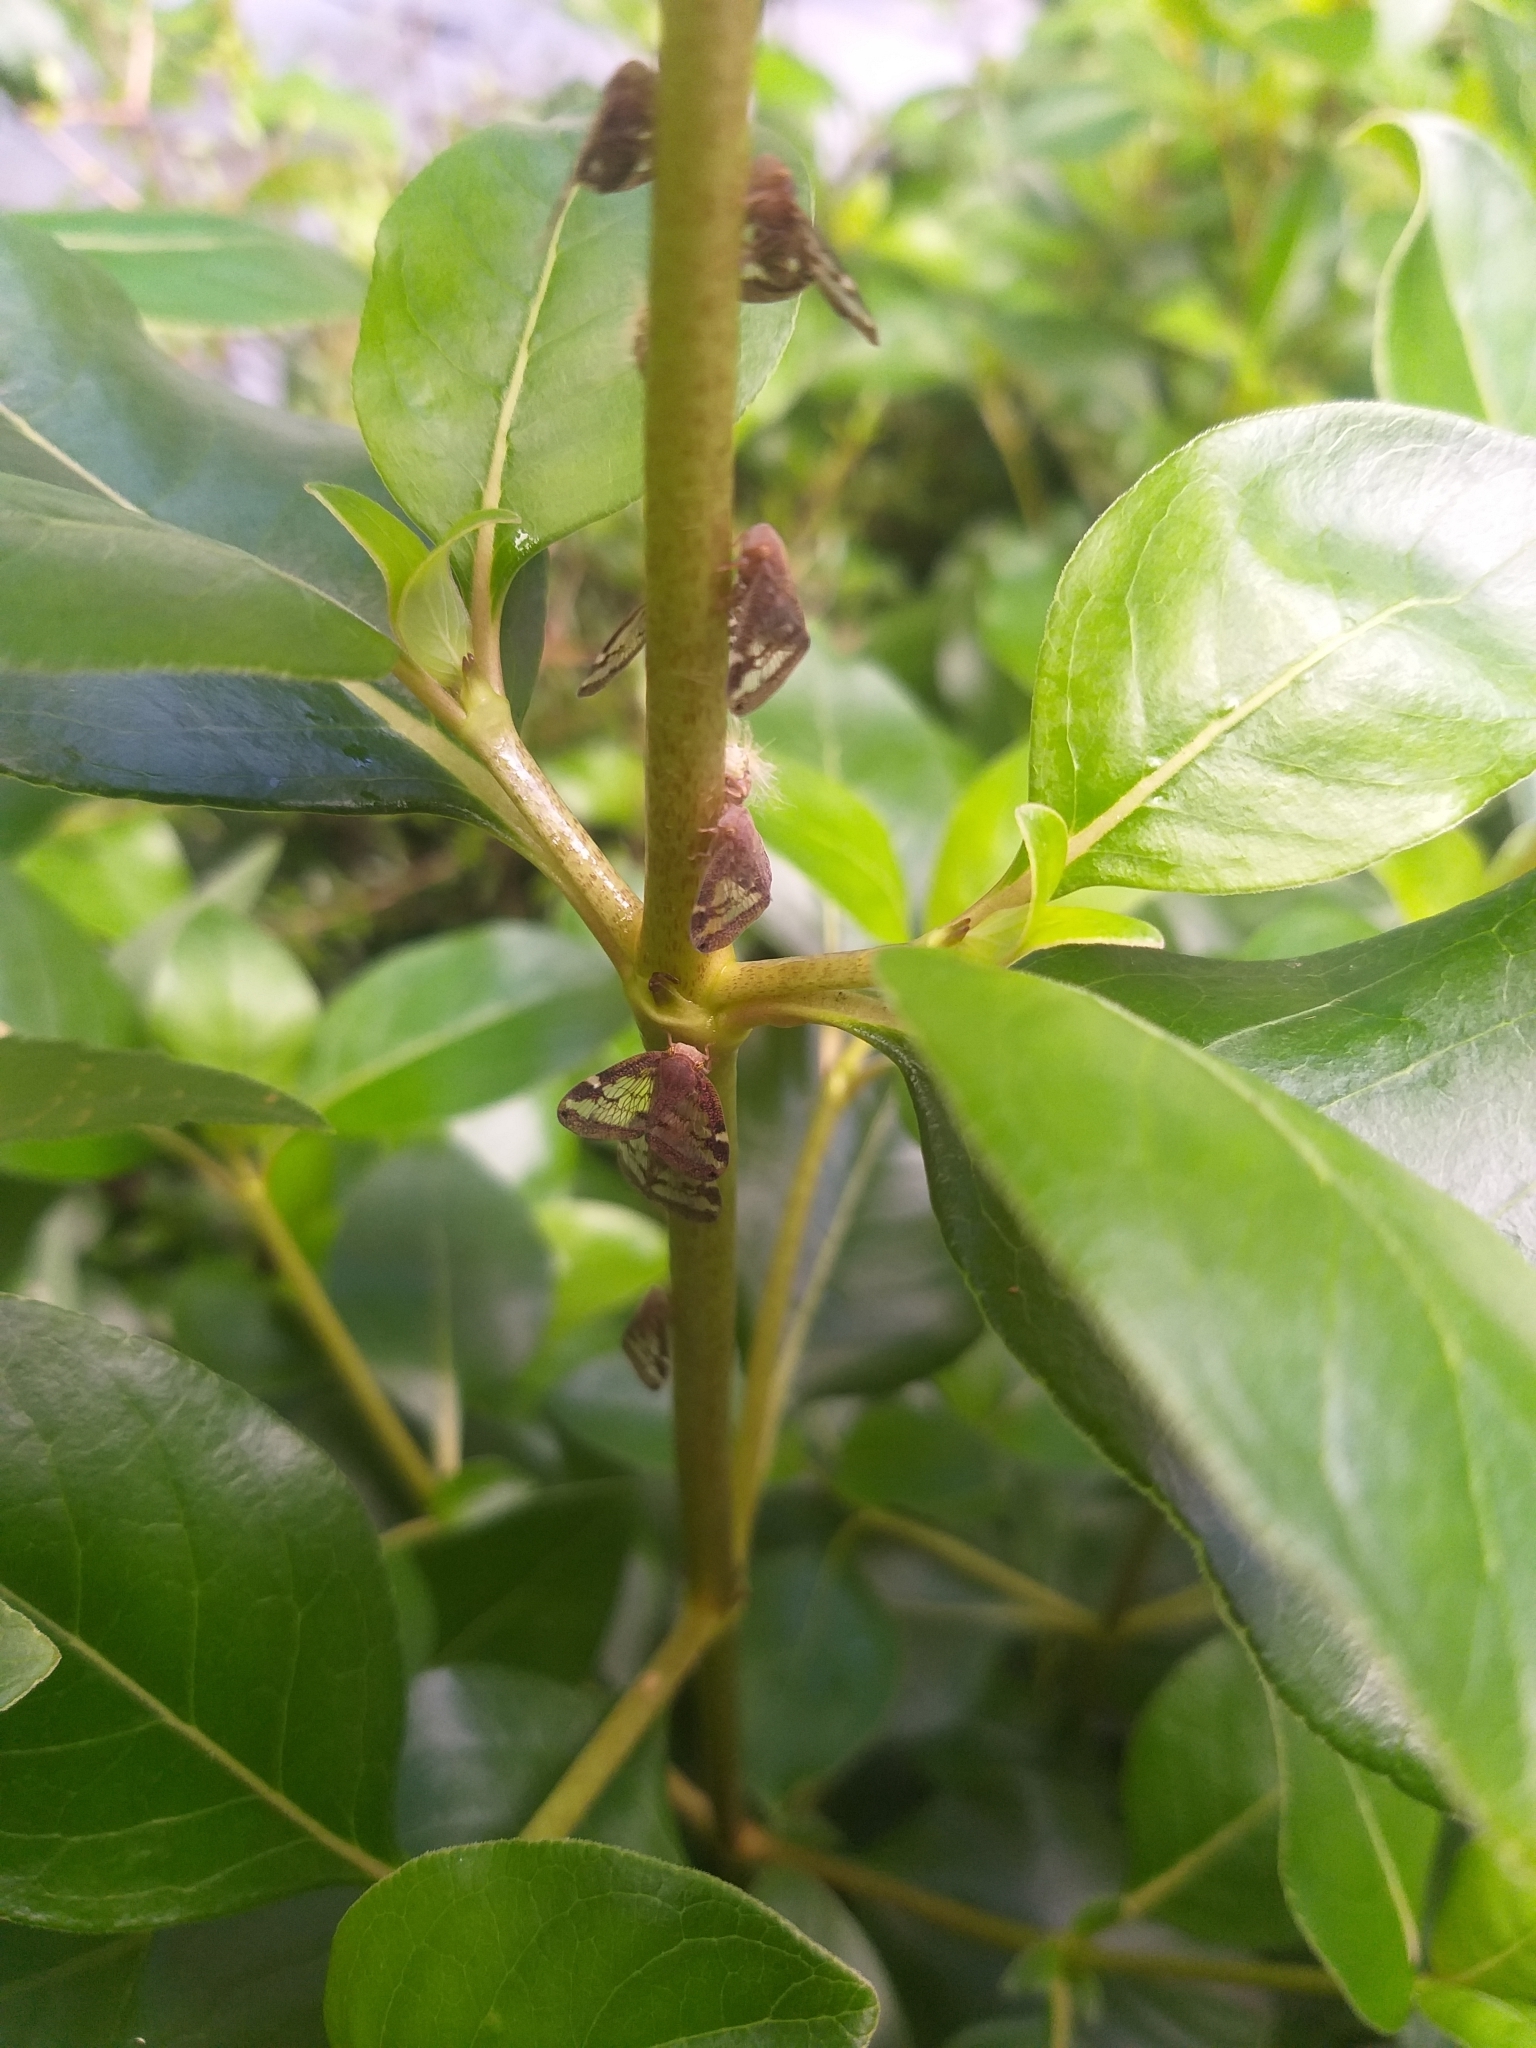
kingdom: Animalia
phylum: Arthropoda
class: Insecta
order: Hemiptera
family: Ricaniidae
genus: Scolypopa
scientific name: Scolypopa australis
